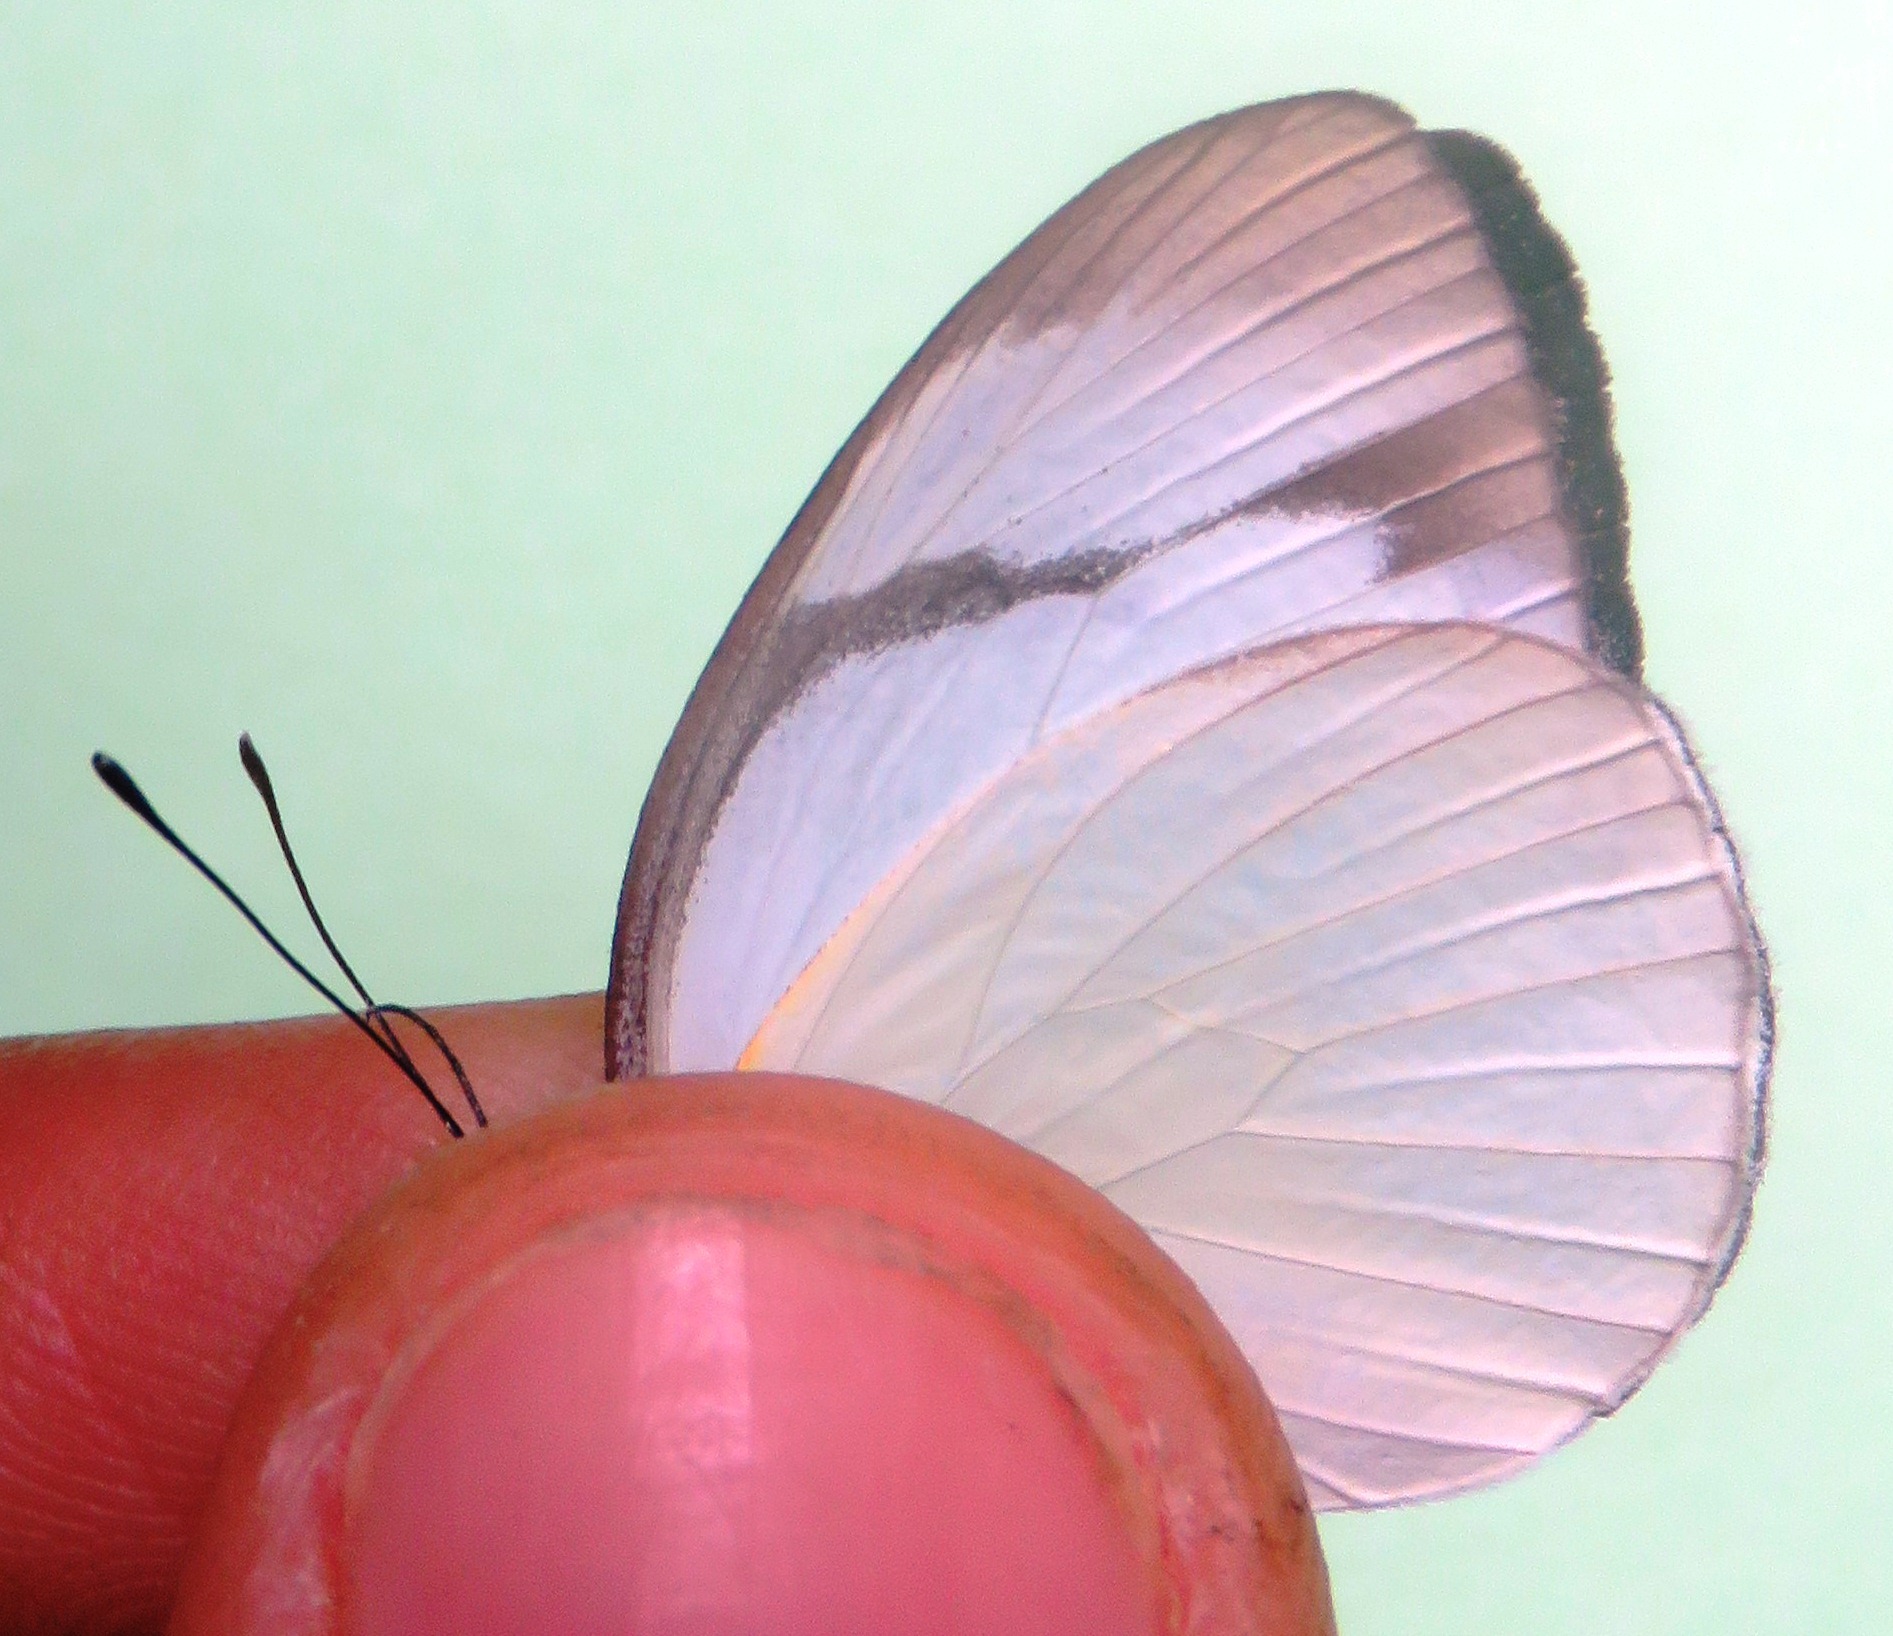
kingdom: Animalia
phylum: Arthropoda
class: Insecta
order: Lepidoptera
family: Pieridae
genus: Itaballia
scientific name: Itaballia demophile
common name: Cross-barred white
